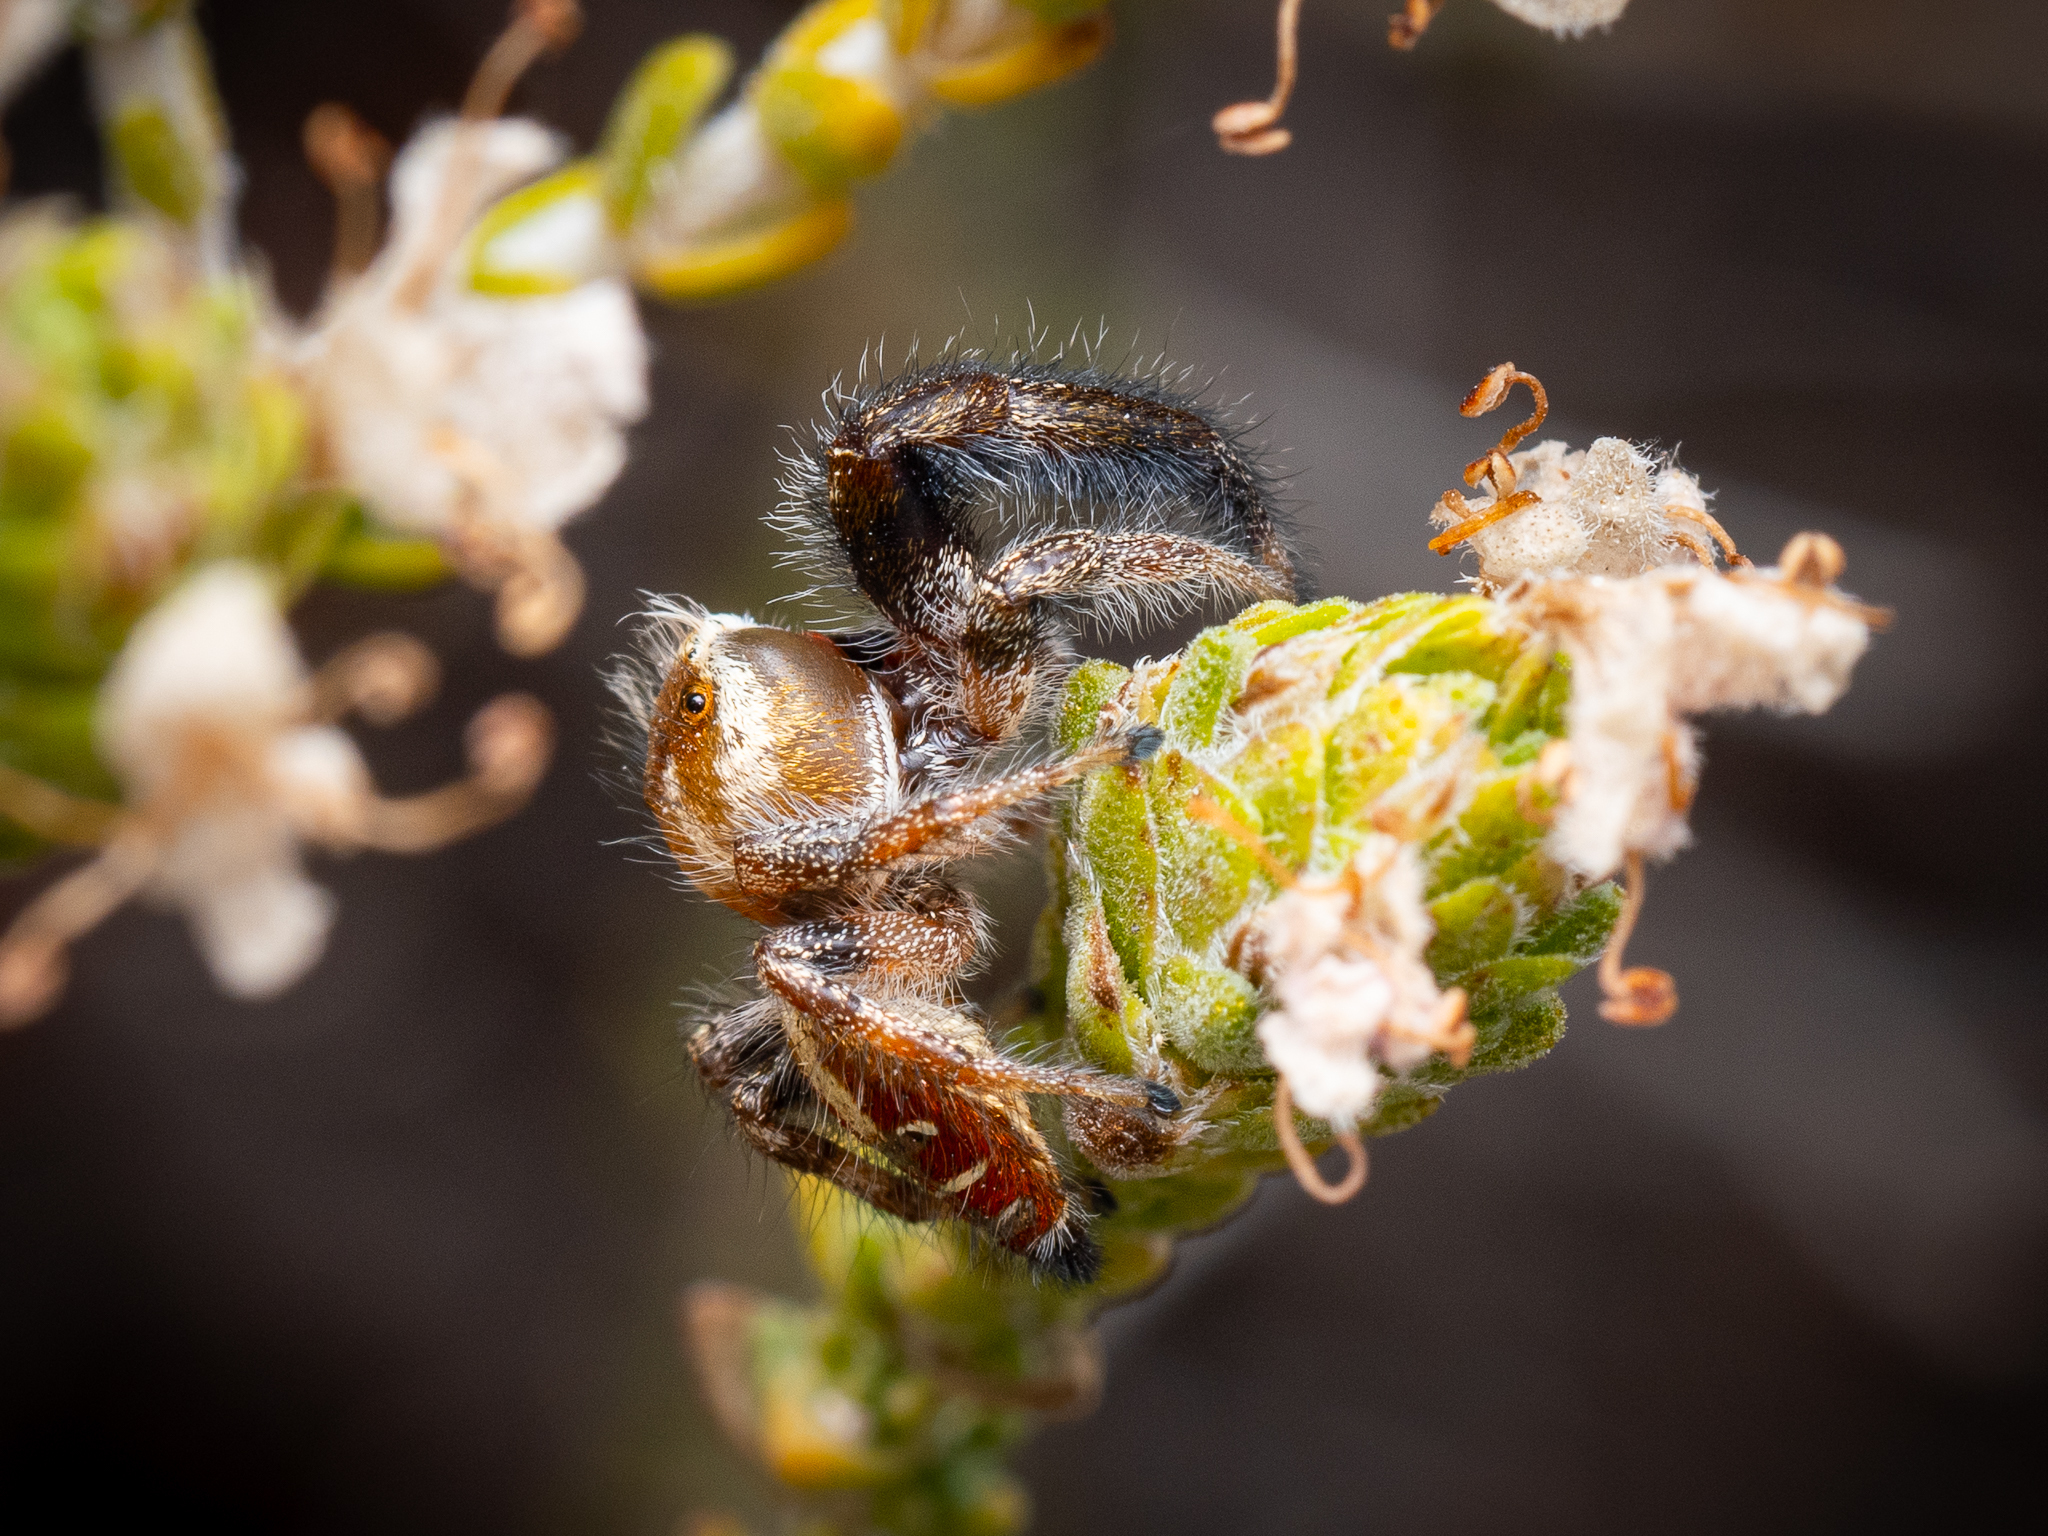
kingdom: Animalia
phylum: Arthropoda
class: Arachnida
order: Araneae
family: Salticidae
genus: Thyene
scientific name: Thyene imperialis
